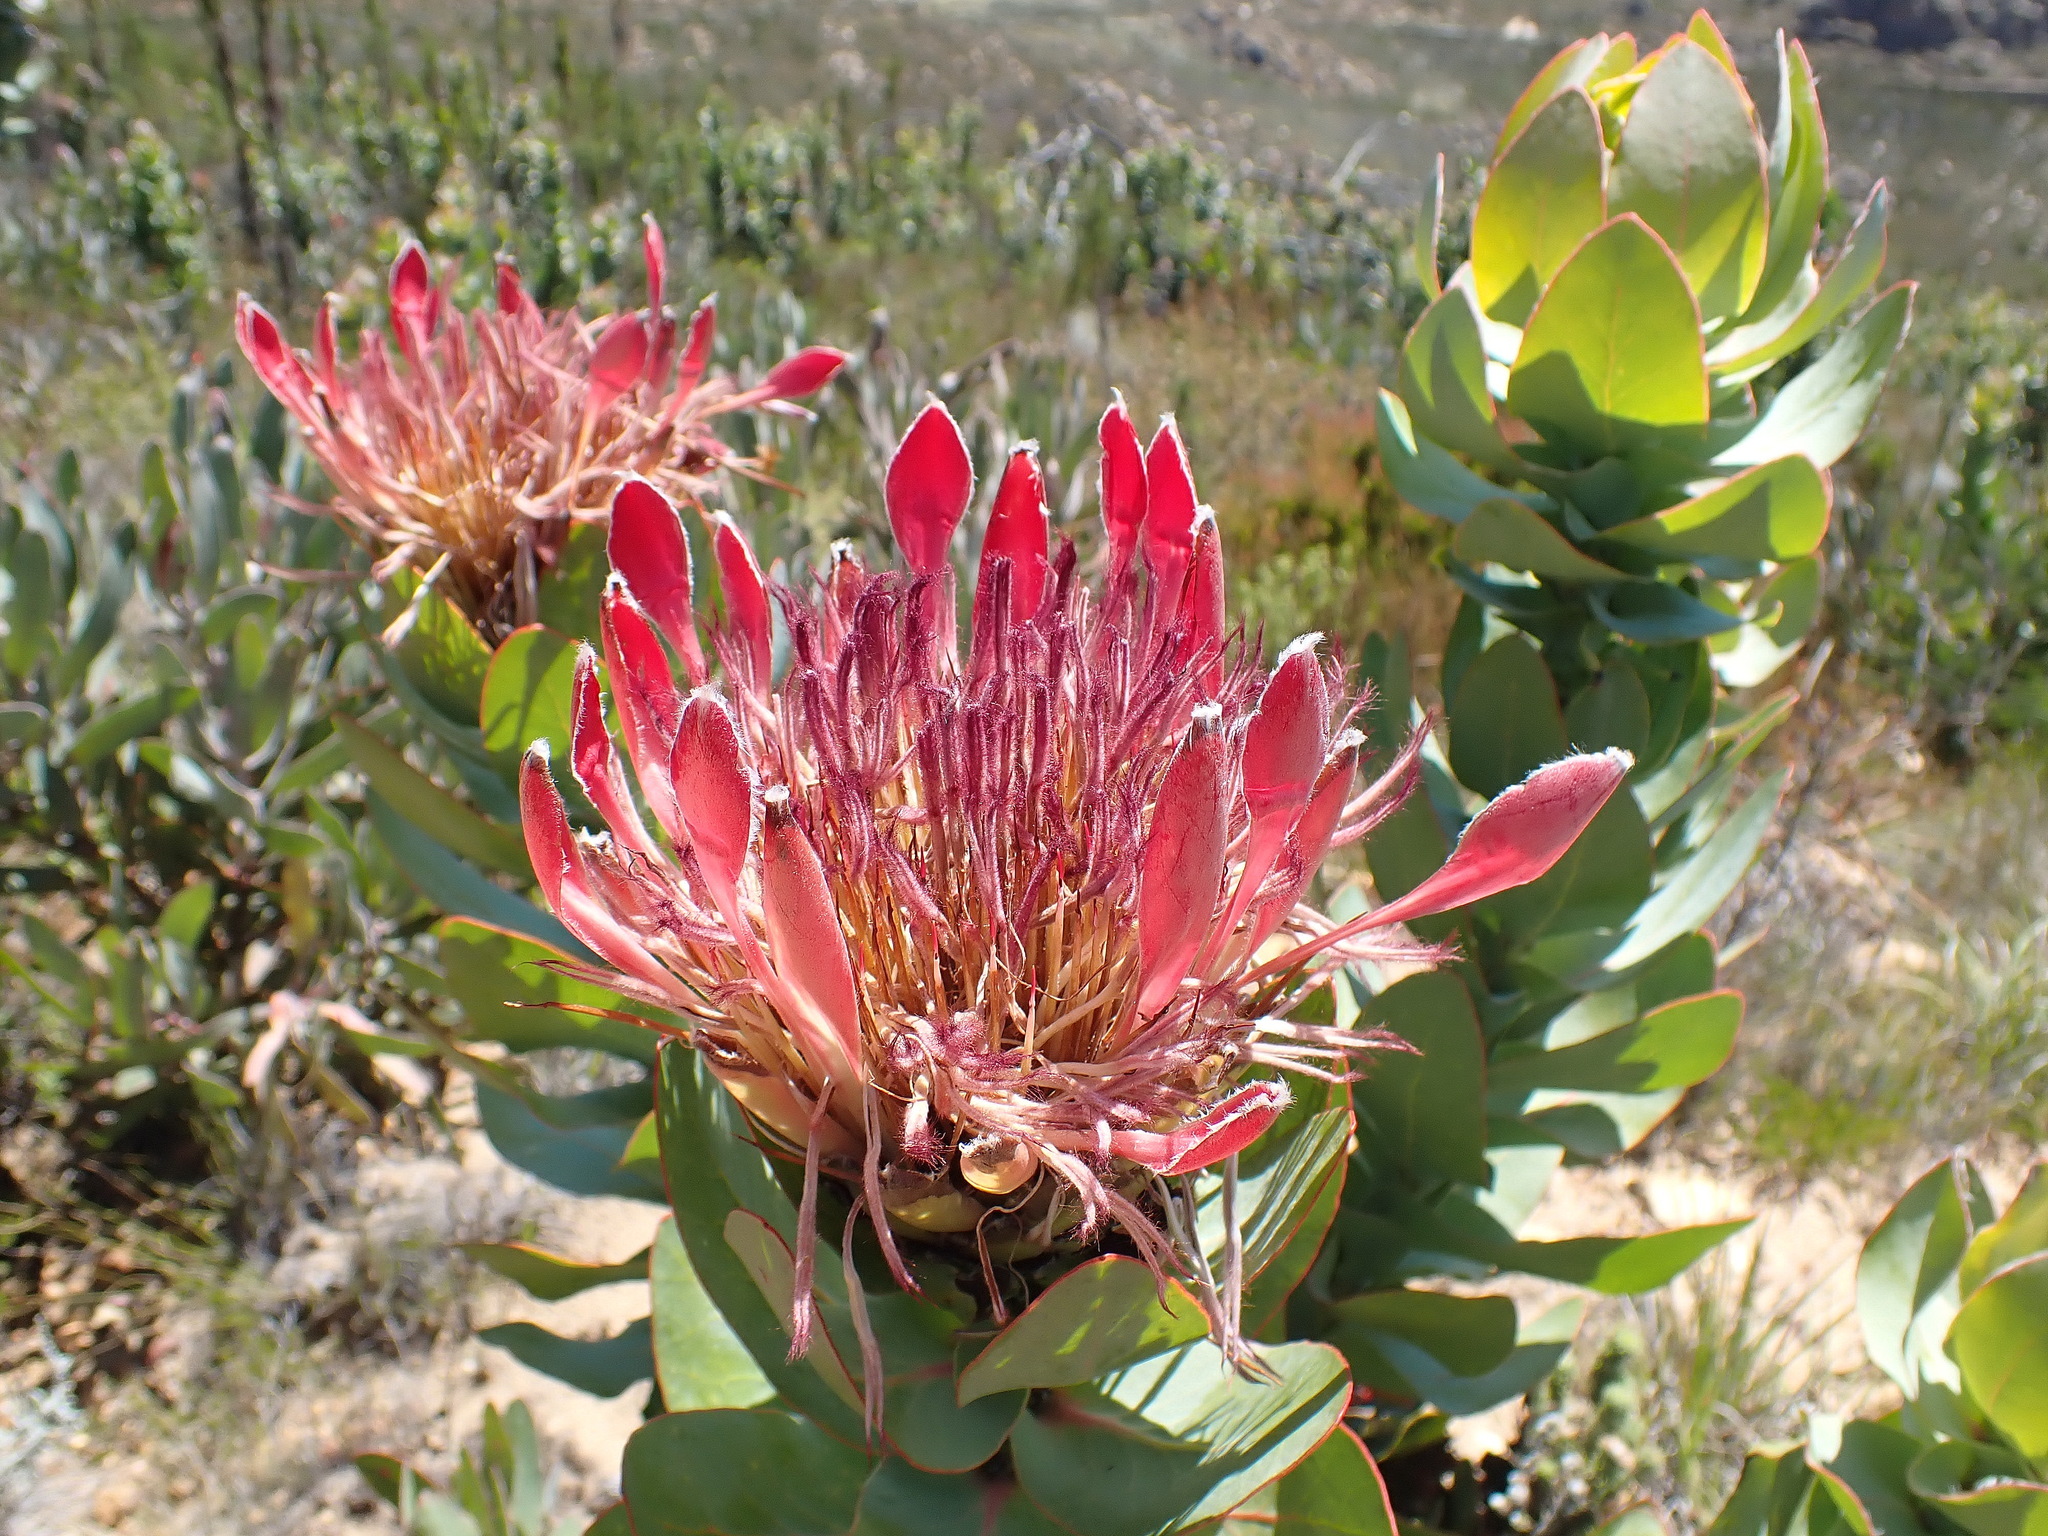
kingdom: Plantae
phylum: Tracheophyta
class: Magnoliopsida
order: Proteales
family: Proteaceae
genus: Protea
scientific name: Protea eximia
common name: Broad-leaved sugarbush
